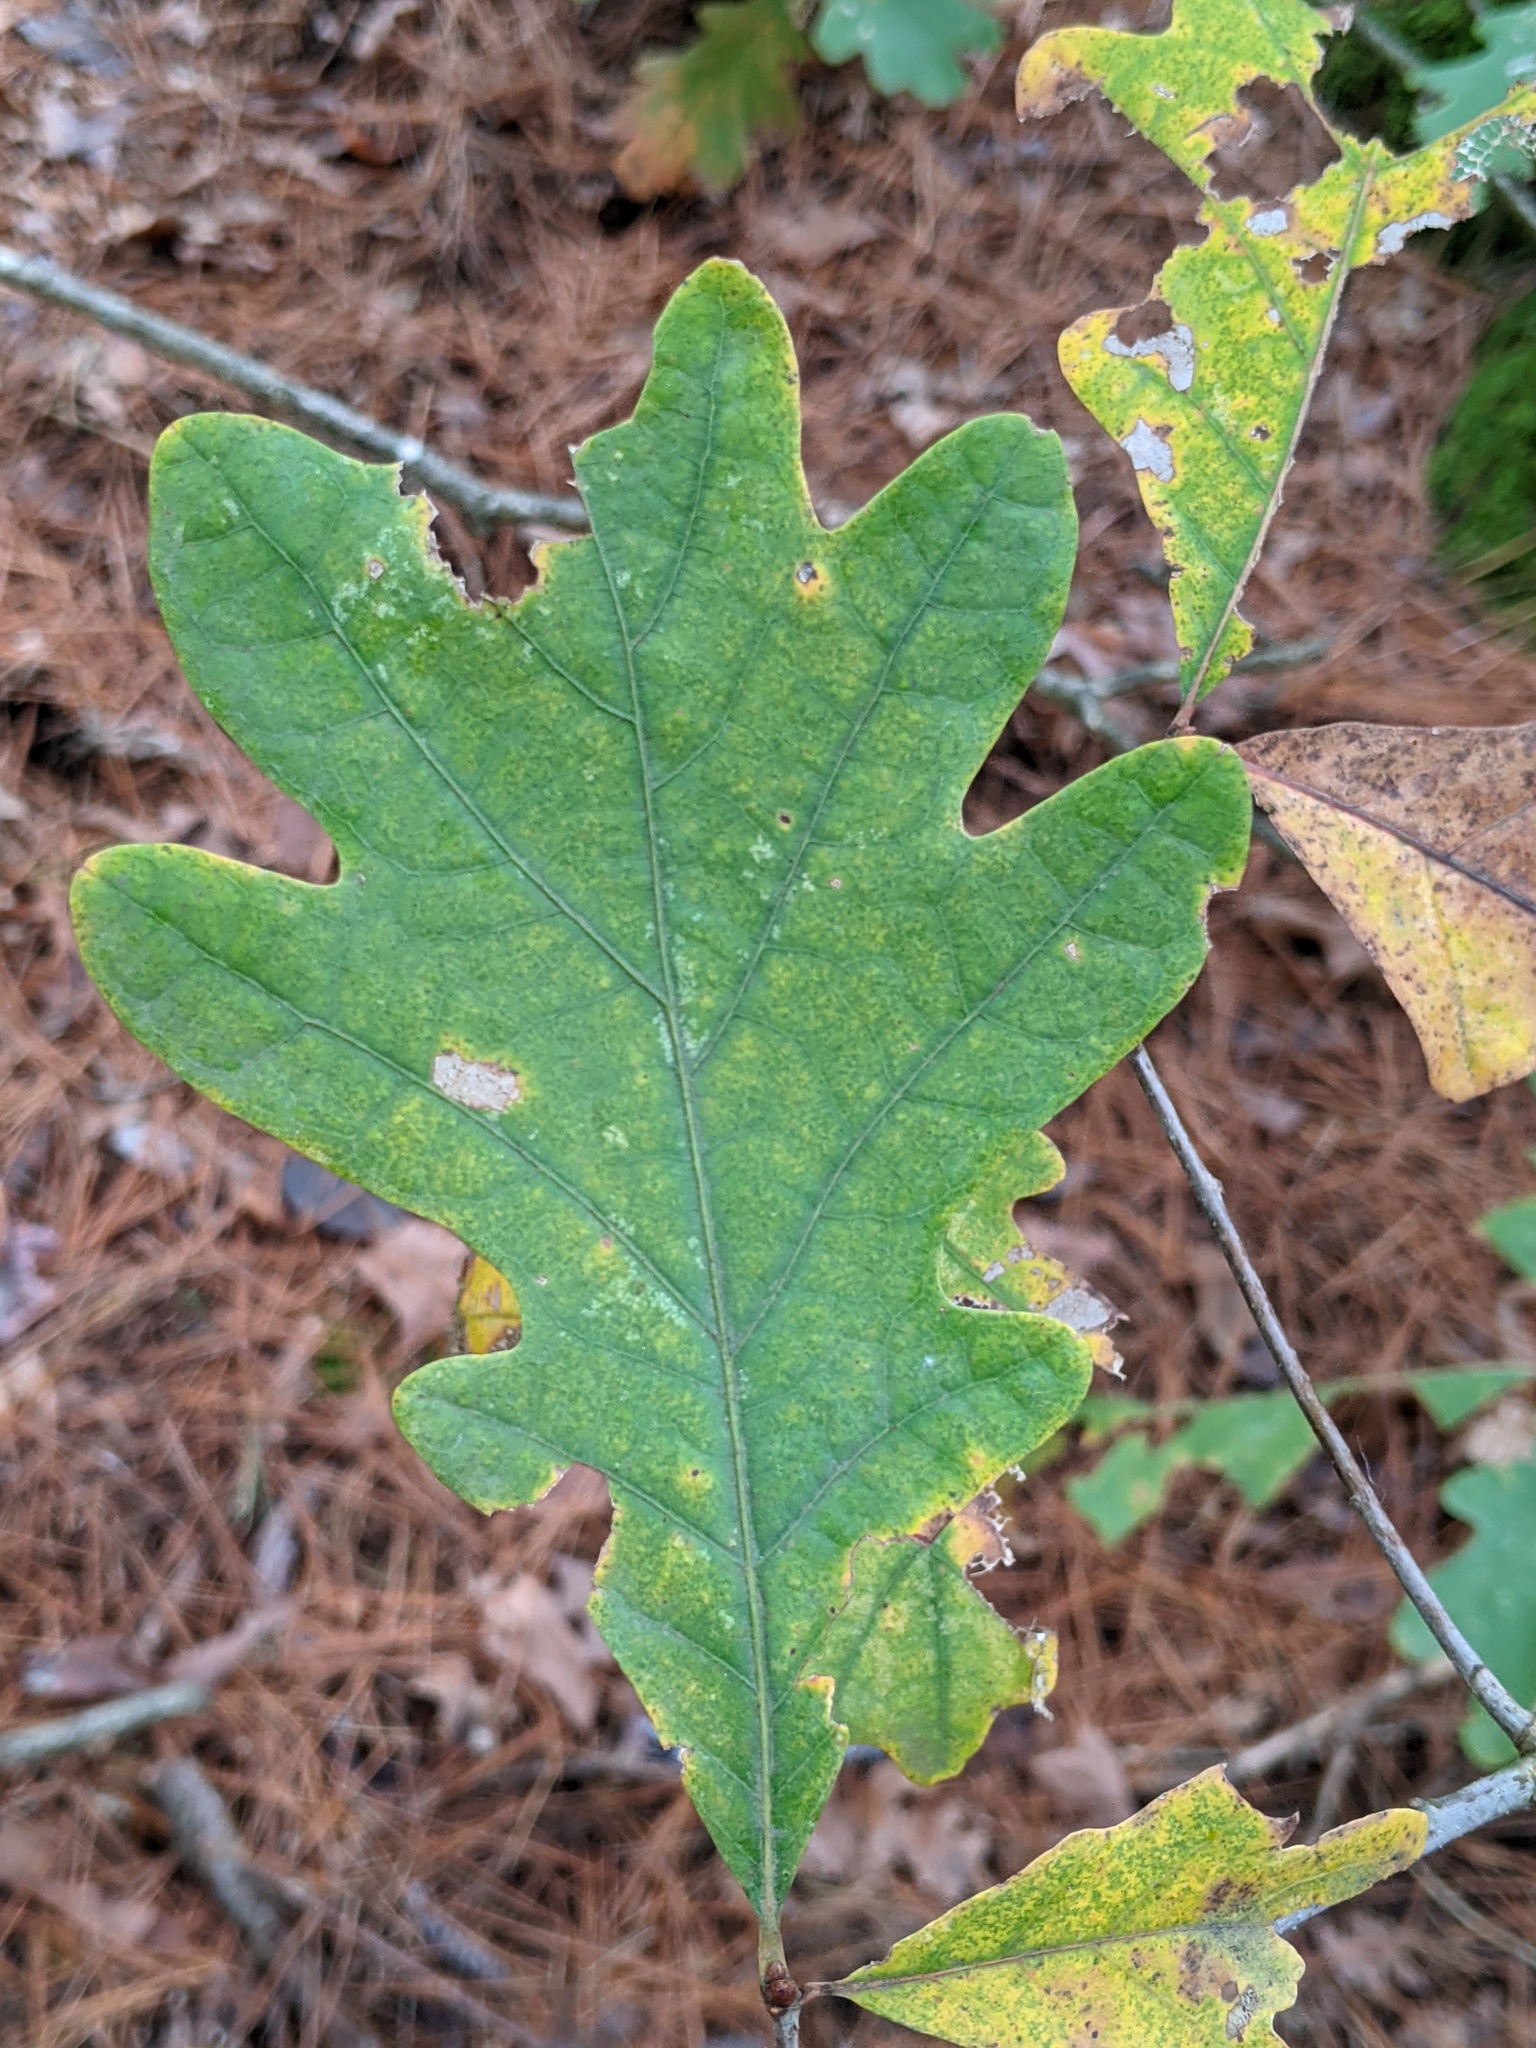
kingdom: Plantae
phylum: Tracheophyta
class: Magnoliopsida
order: Fagales
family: Fagaceae
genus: Quercus
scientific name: Quercus alba
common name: White oak
